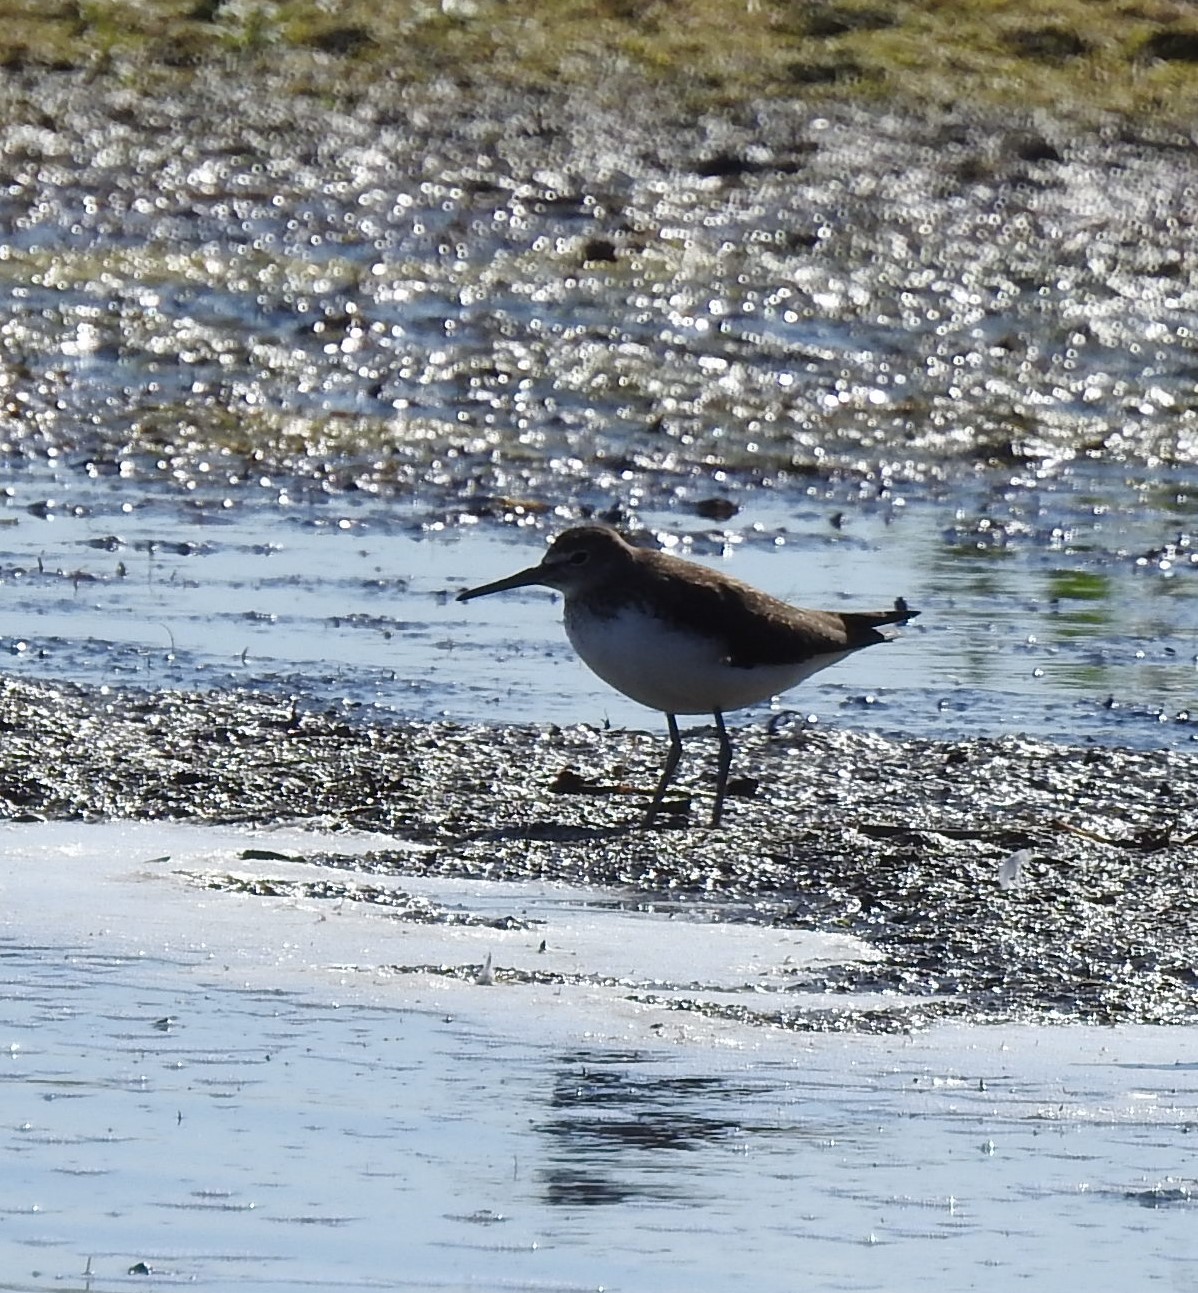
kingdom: Animalia
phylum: Chordata
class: Aves
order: Charadriiformes
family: Scolopacidae
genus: Tringa
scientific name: Tringa ochropus
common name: Green sandpiper
